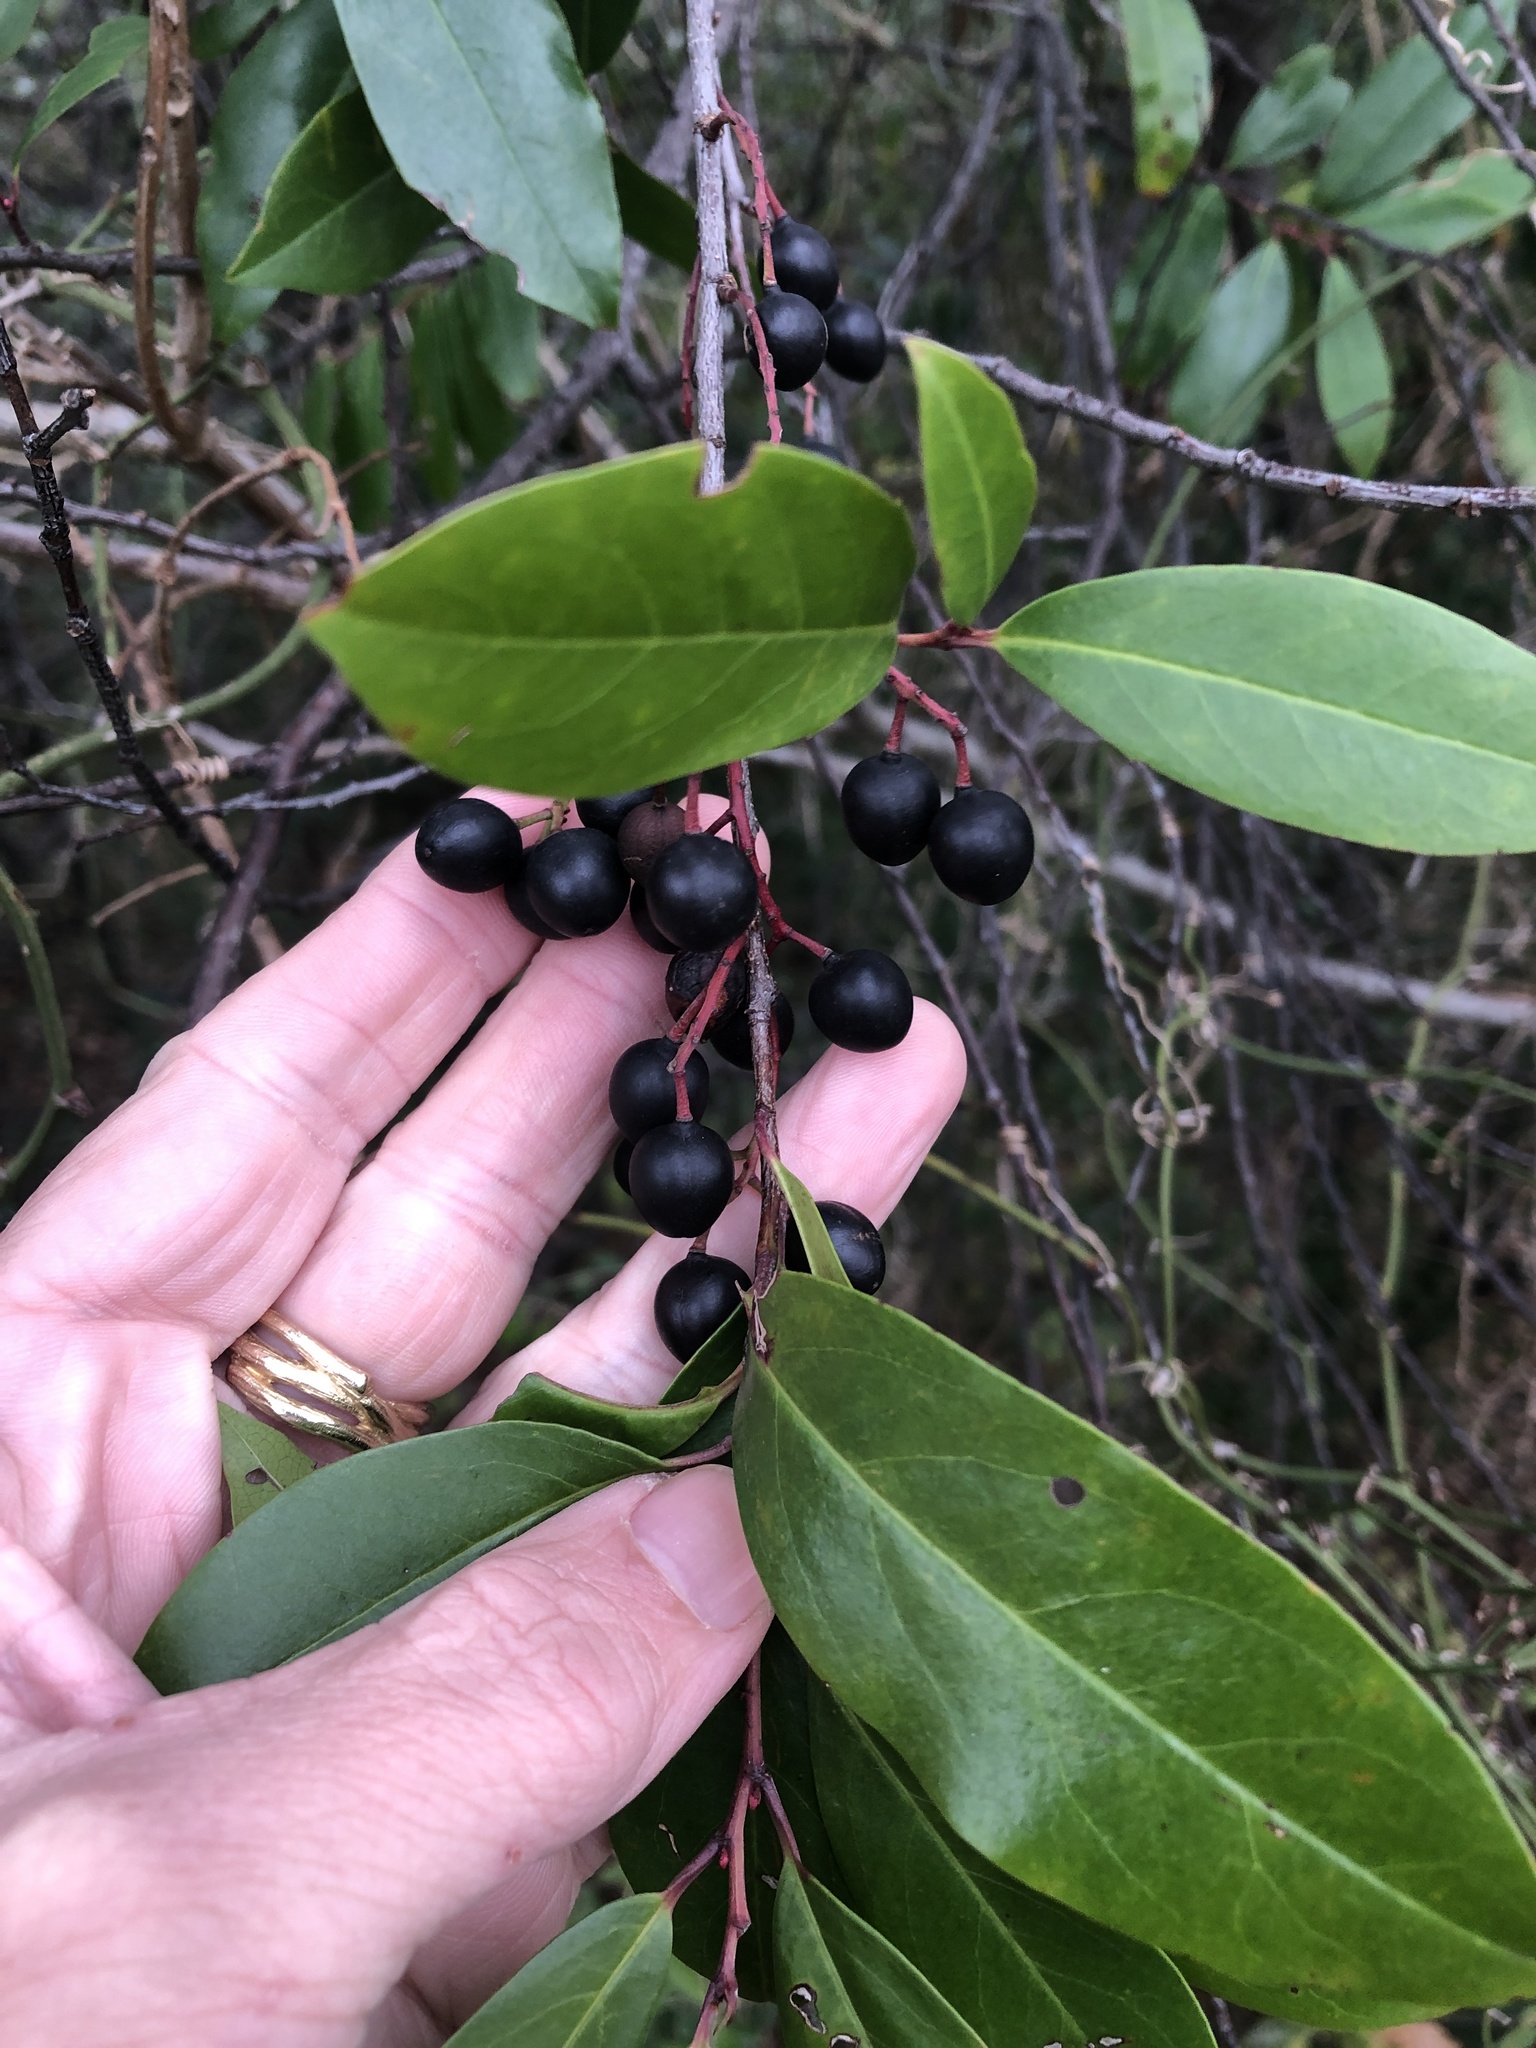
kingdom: Plantae
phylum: Tracheophyta
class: Magnoliopsida
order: Rosales
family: Rosaceae
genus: Prunus
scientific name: Prunus caroliniana
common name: Carolina laurel cherry
